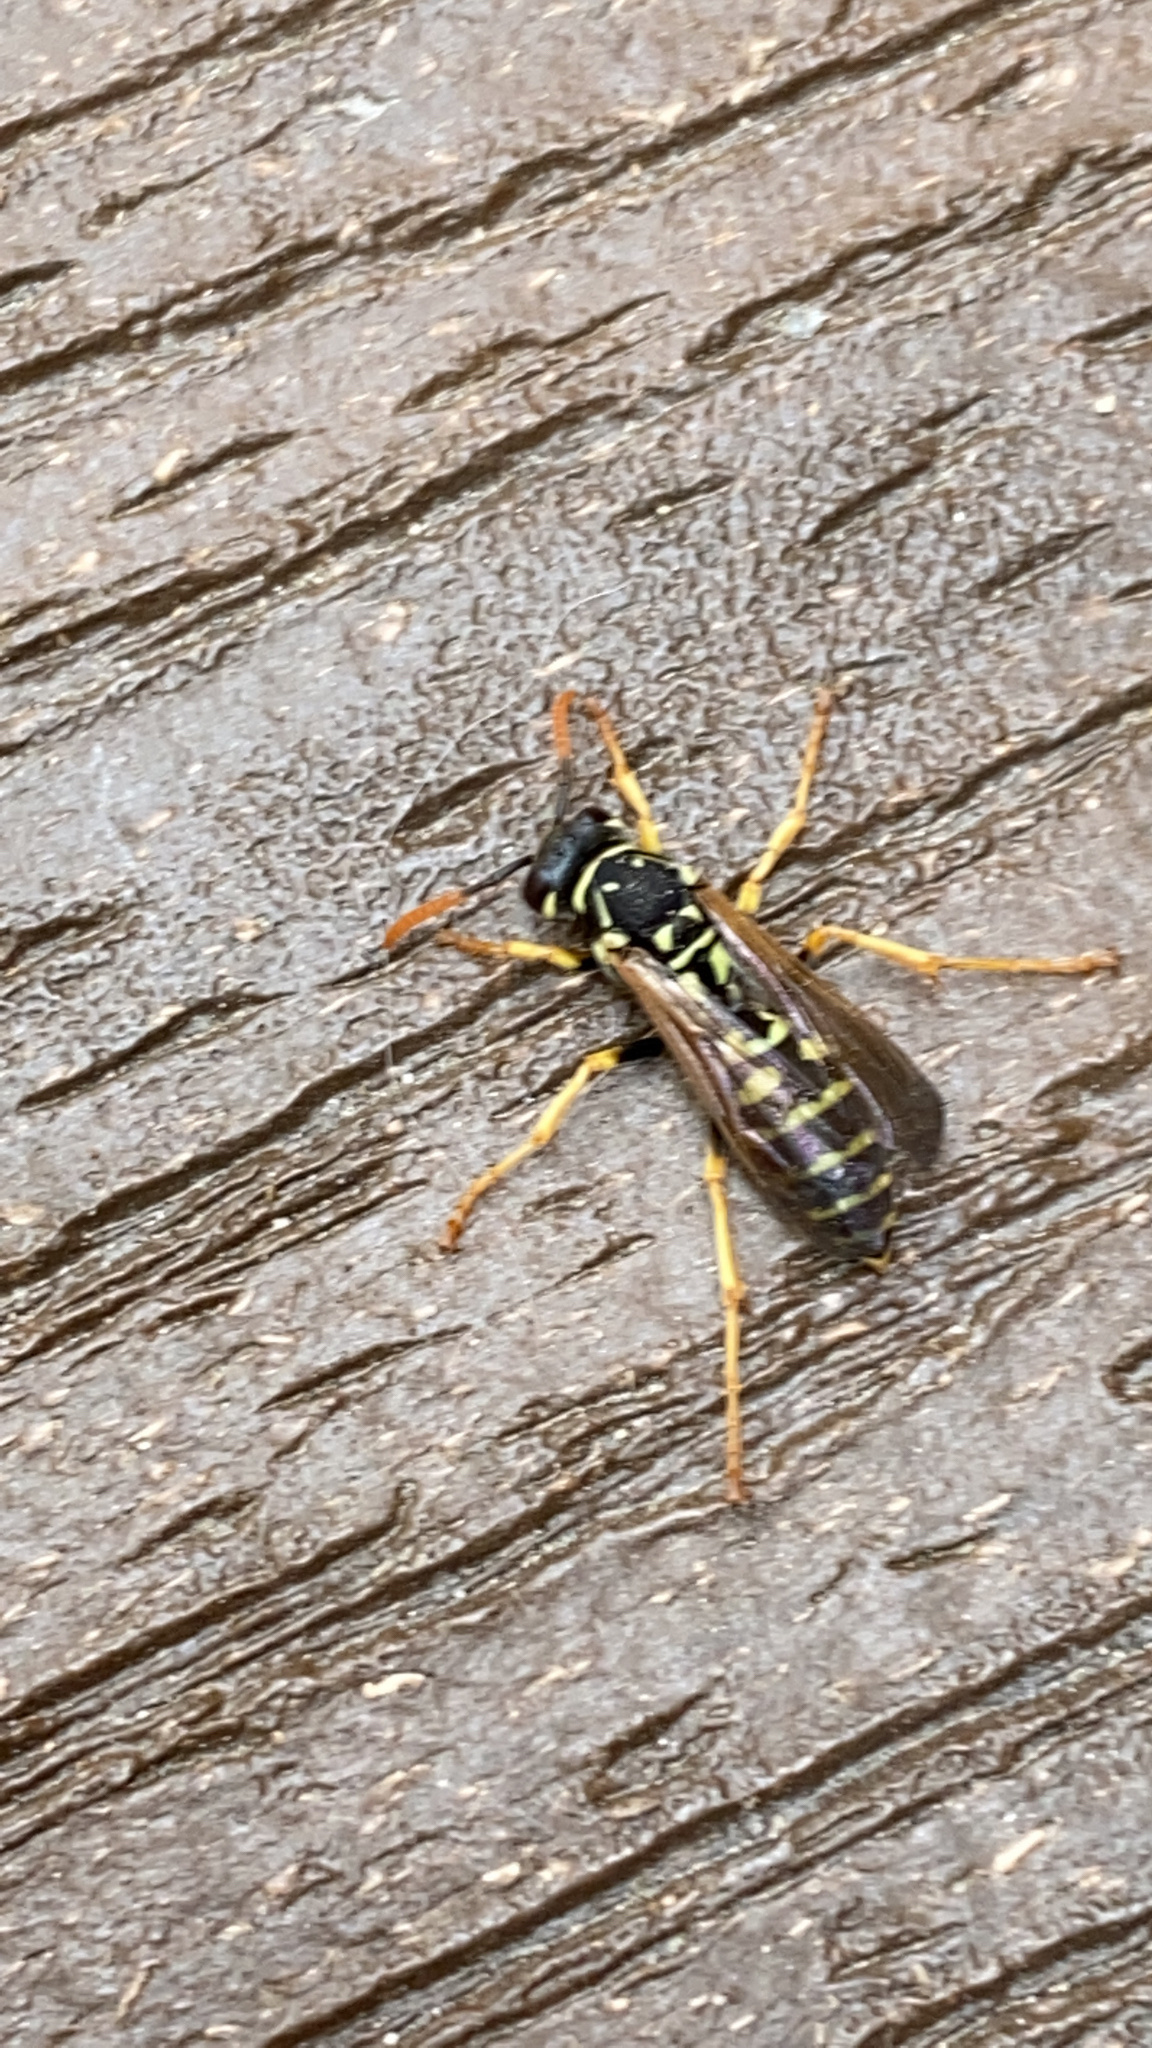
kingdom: Animalia
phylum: Arthropoda
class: Insecta
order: Hymenoptera
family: Eumenidae
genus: Polistes
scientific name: Polistes dominula
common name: Paper wasp
